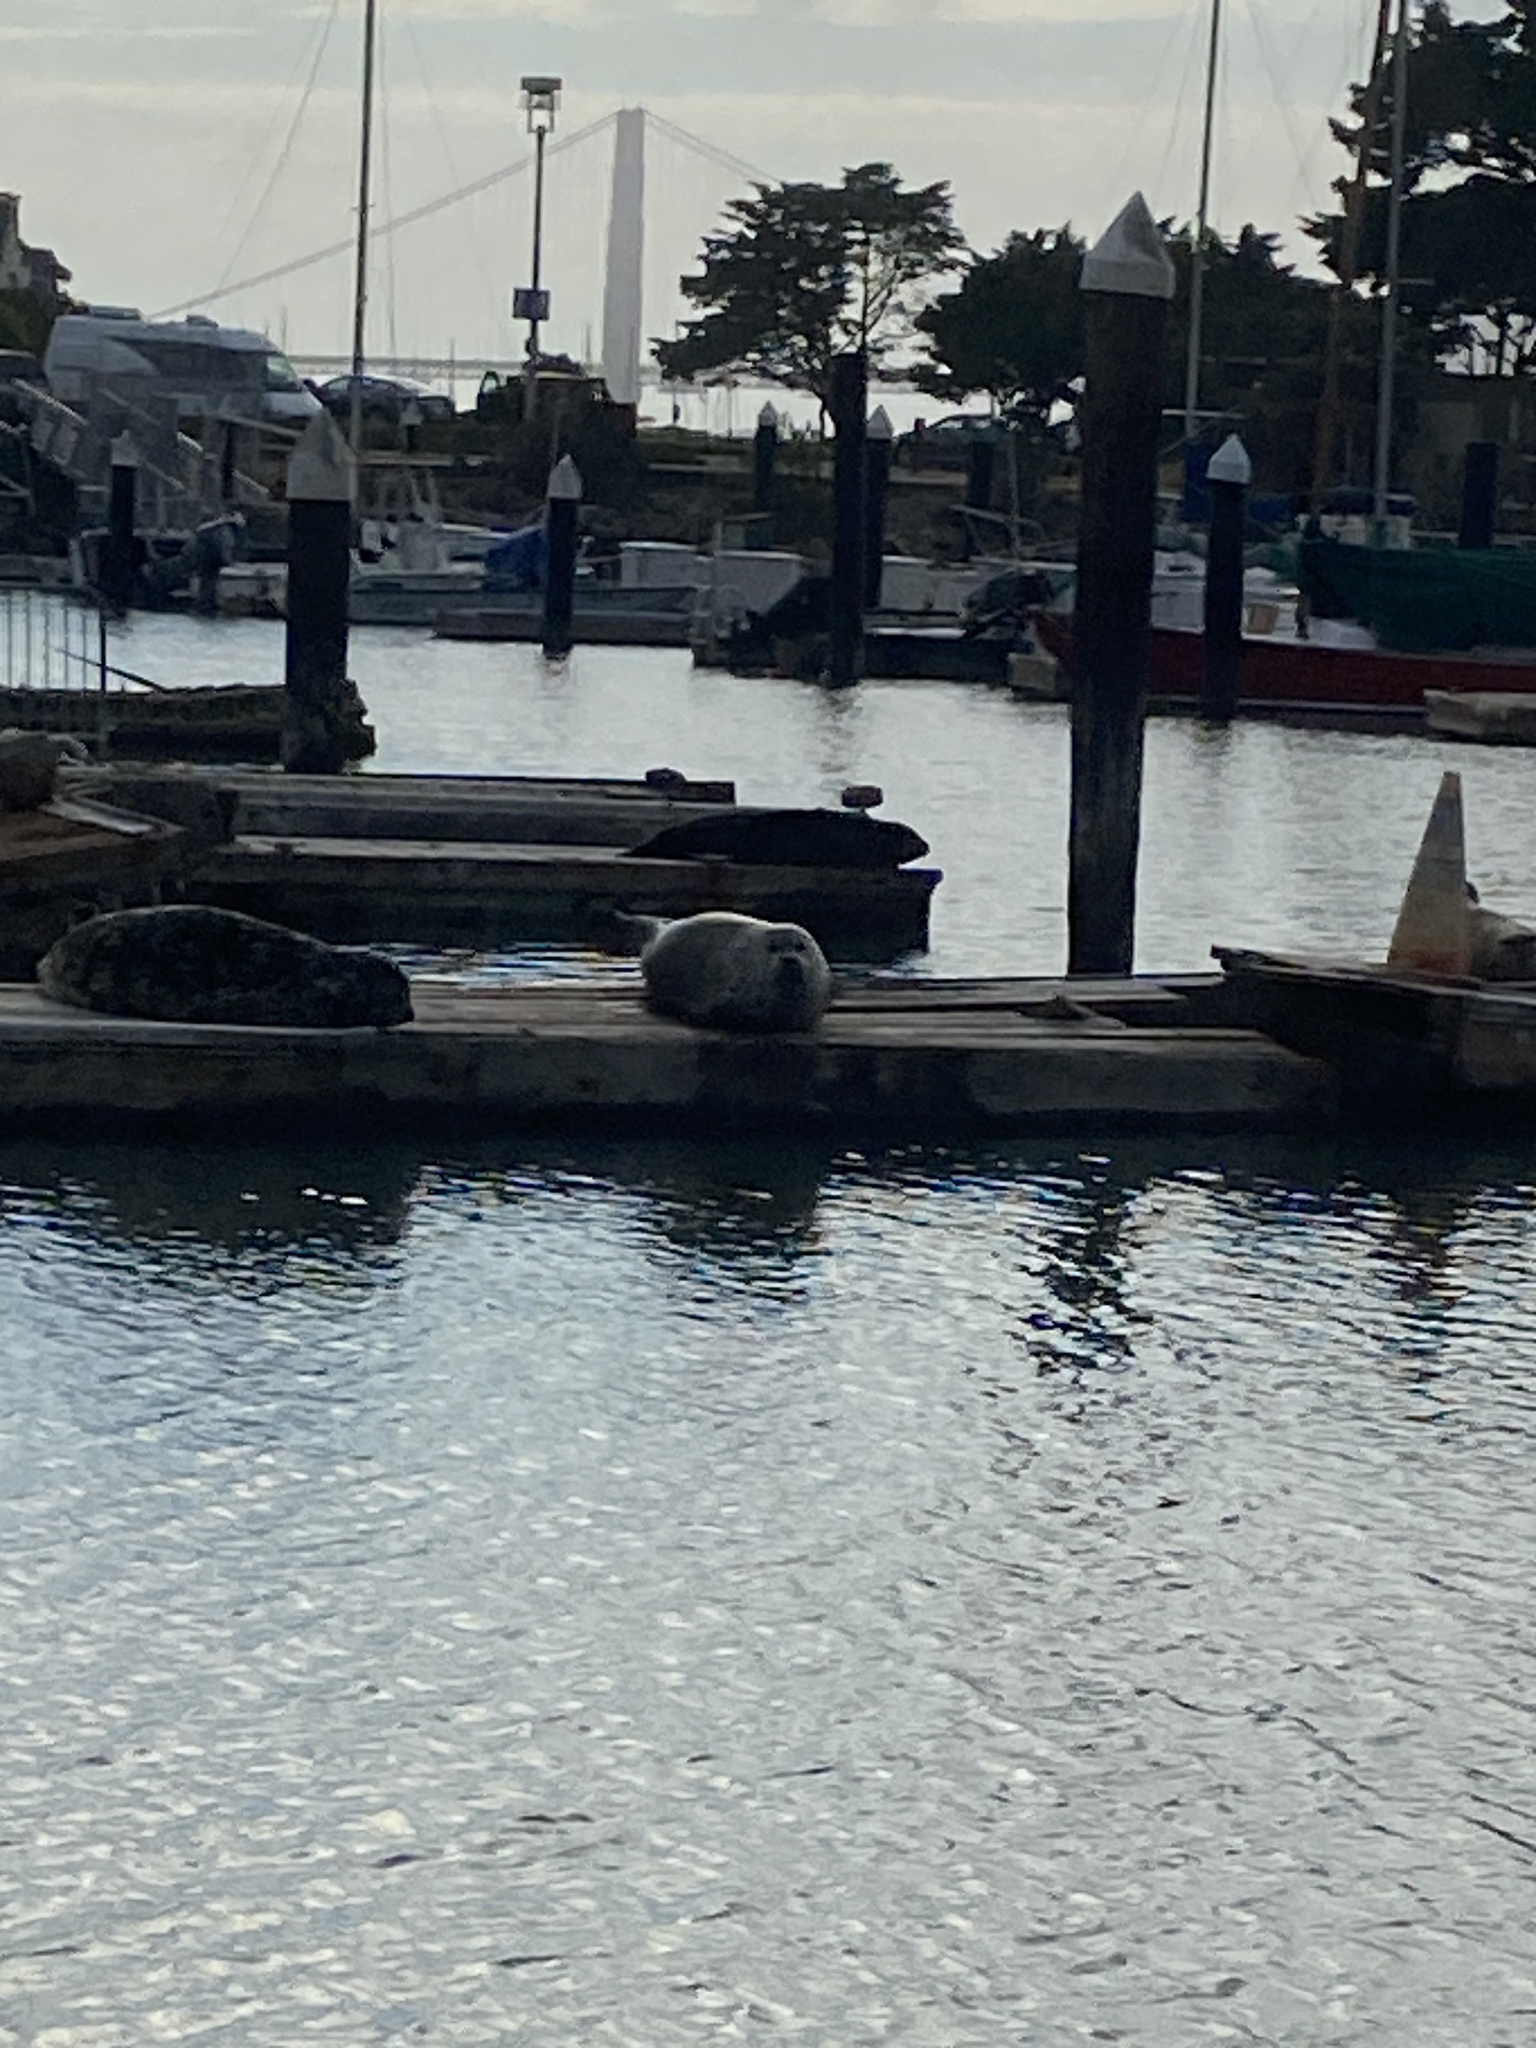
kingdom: Animalia
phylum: Chordata
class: Mammalia
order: Carnivora
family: Phocidae
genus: Phoca
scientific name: Phoca vitulina
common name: Harbor seal
